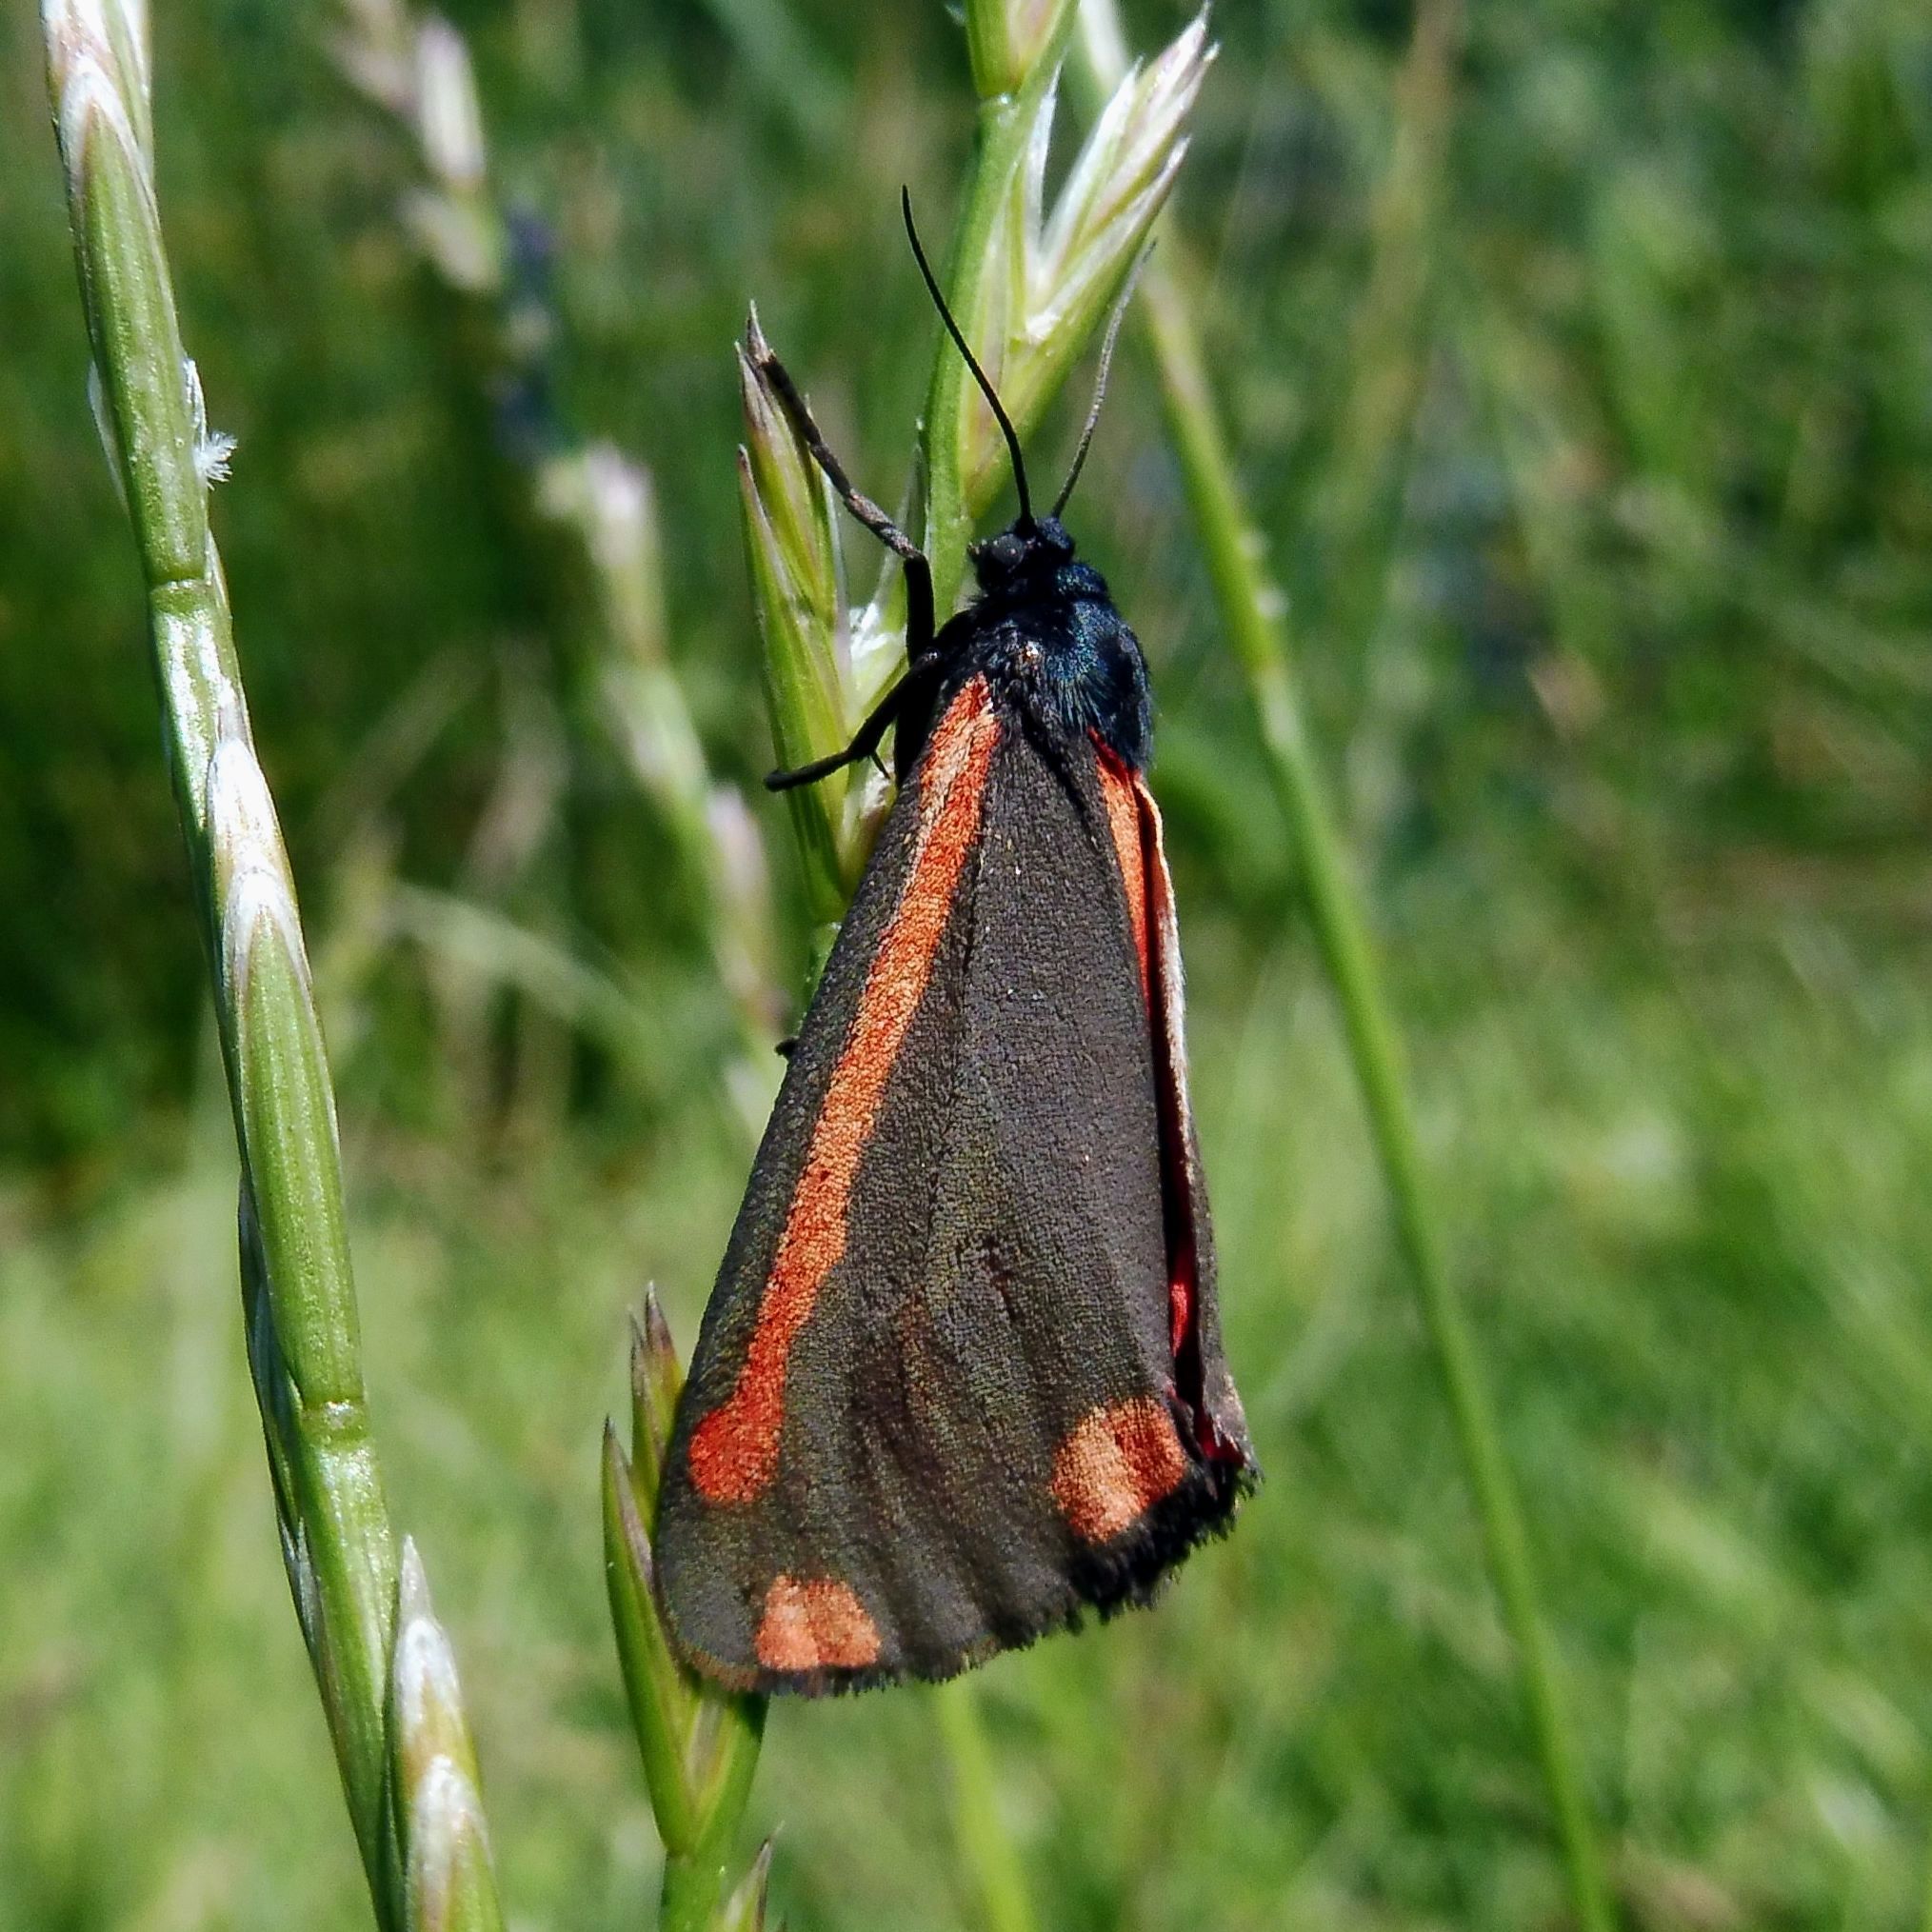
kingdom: Animalia
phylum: Arthropoda
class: Insecta
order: Lepidoptera
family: Erebidae
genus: Tyria
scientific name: Tyria jacobaeae
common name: Cinnabar
